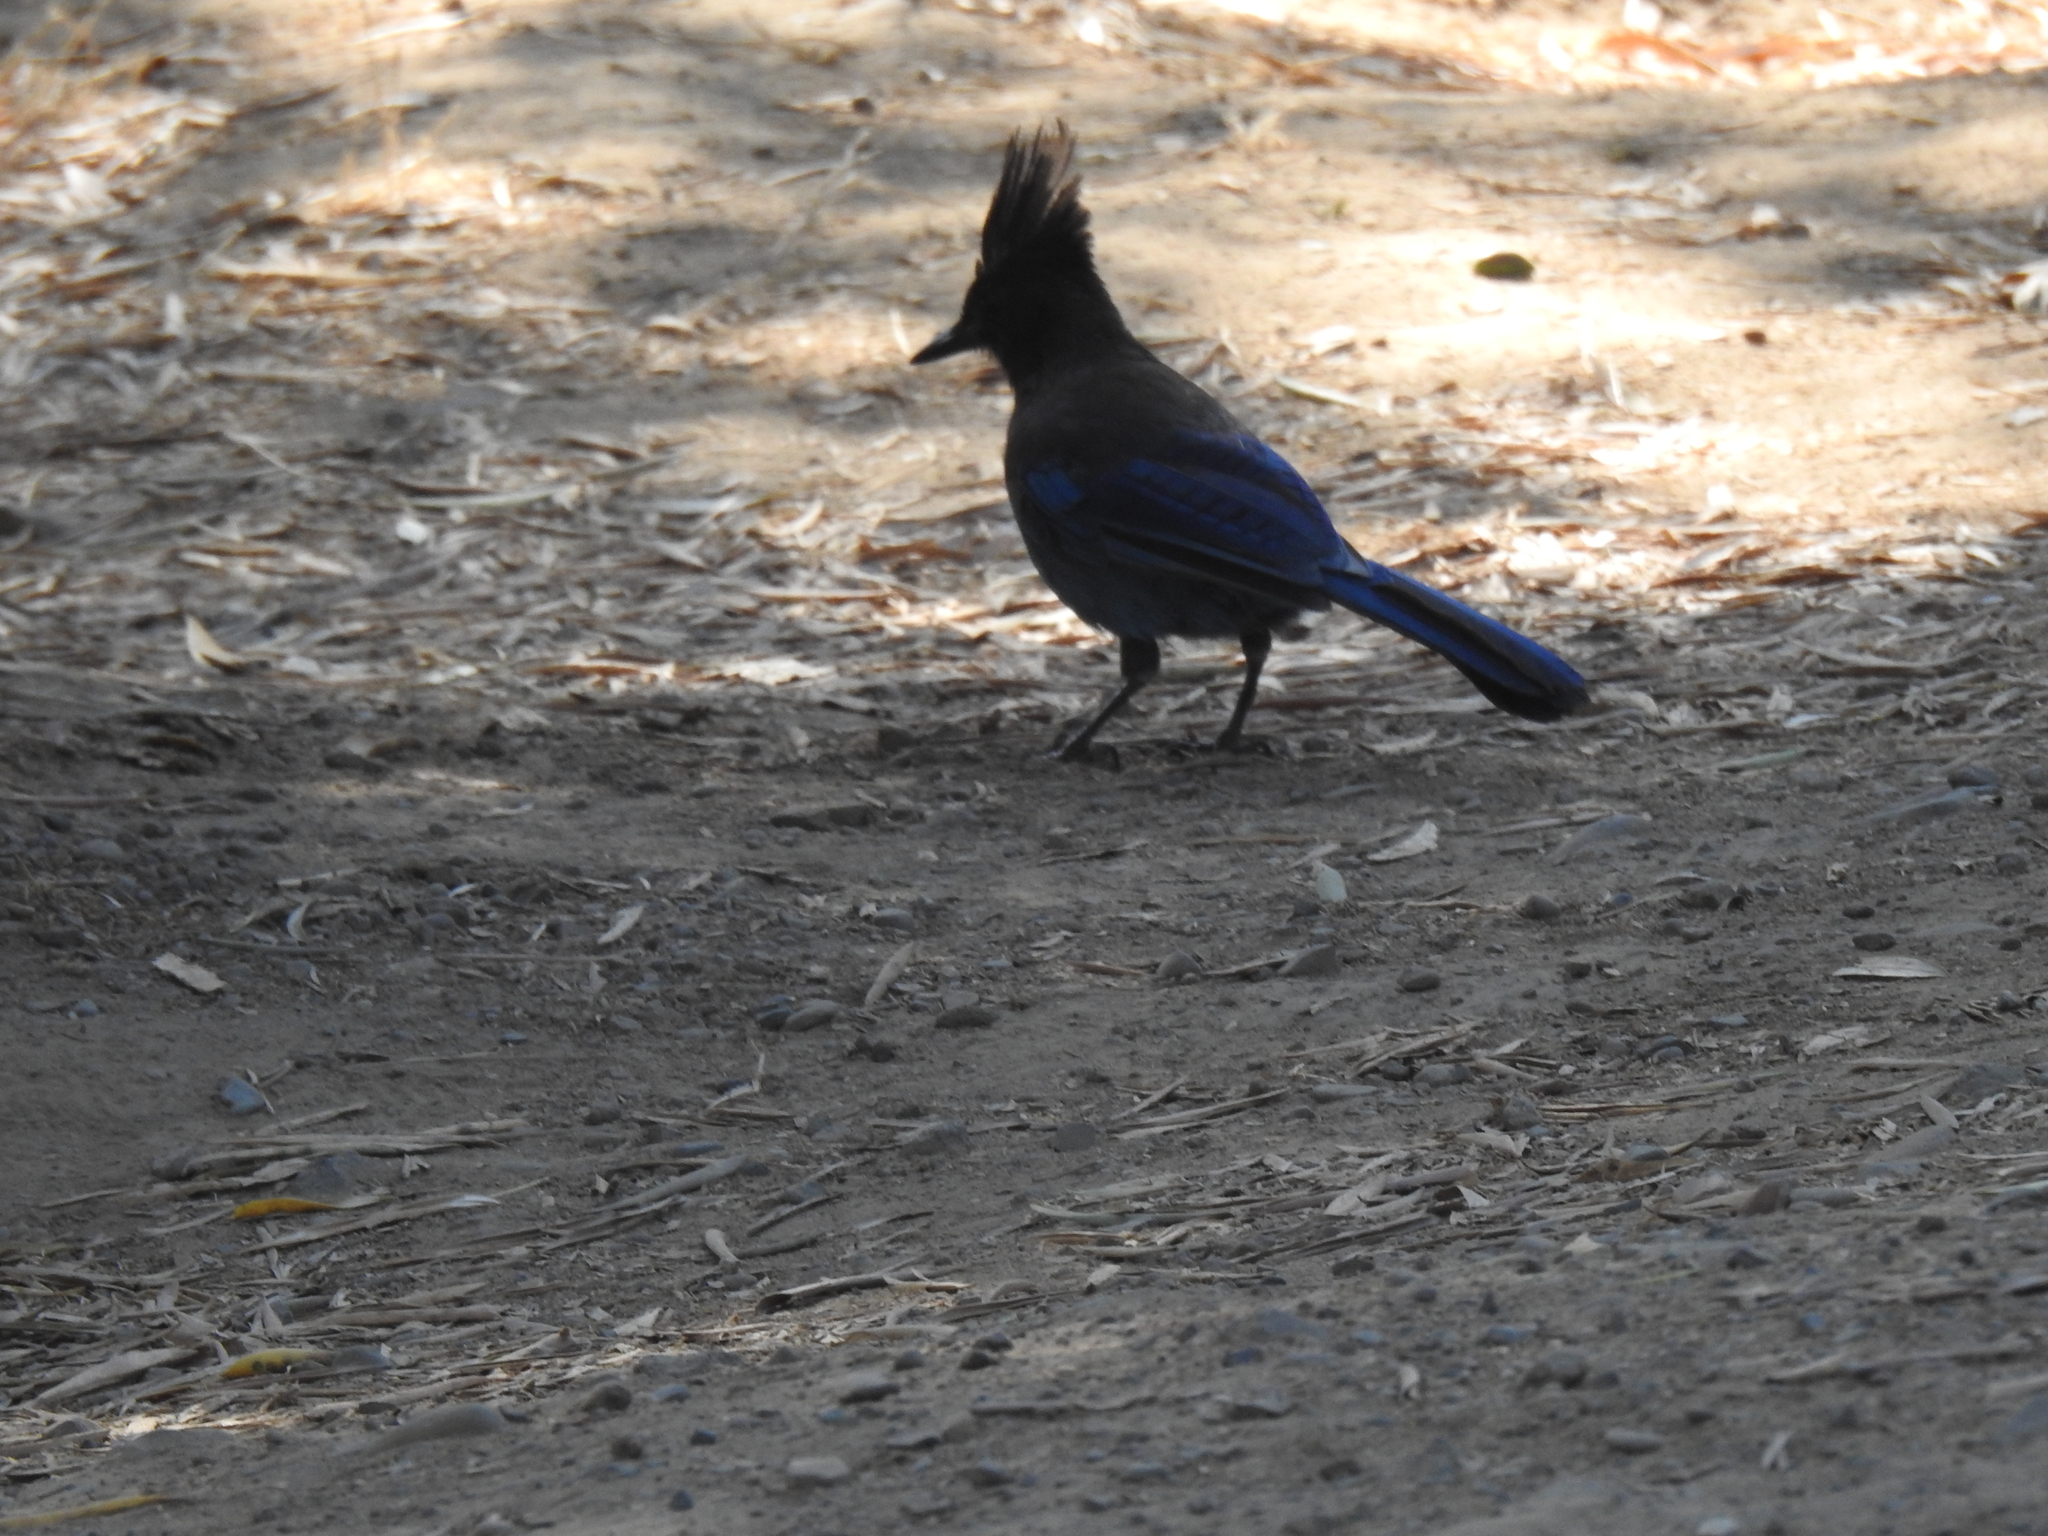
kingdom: Animalia
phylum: Chordata
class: Aves
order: Passeriformes
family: Corvidae
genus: Cyanocitta
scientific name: Cyanocitta stelleri
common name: Steller's jay
